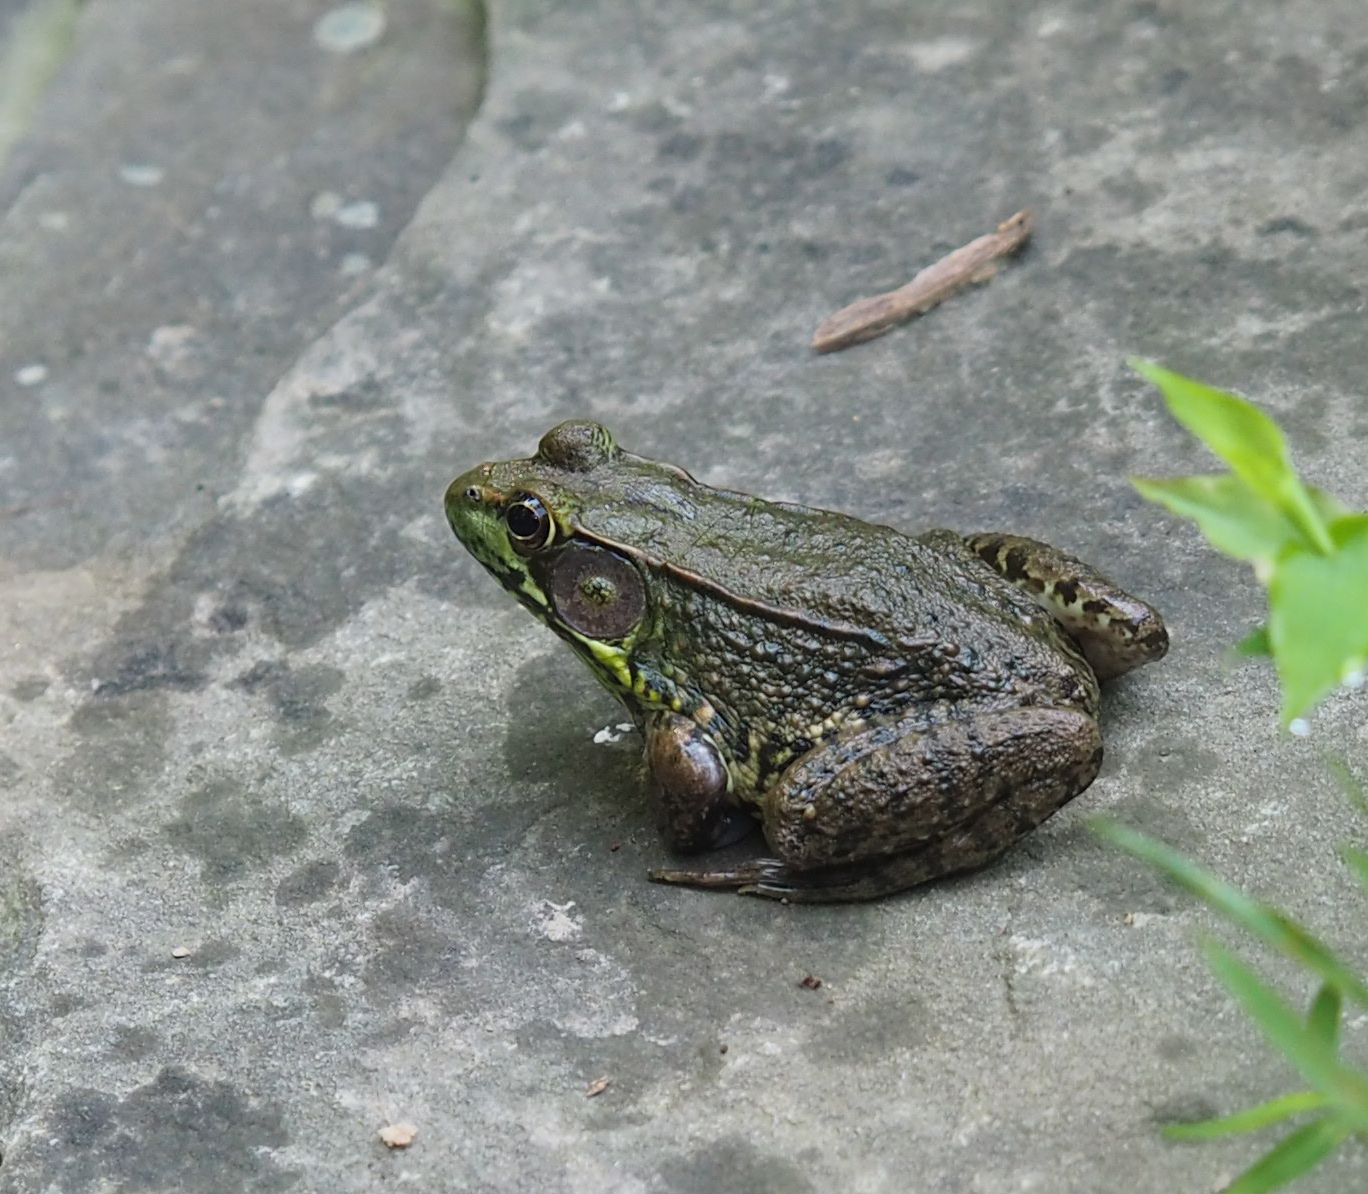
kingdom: Animalia
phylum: Chordata
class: Amphibia
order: Anura
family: Ranidae
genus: Lithobates
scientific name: Lithobates clamitans
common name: Green frog
